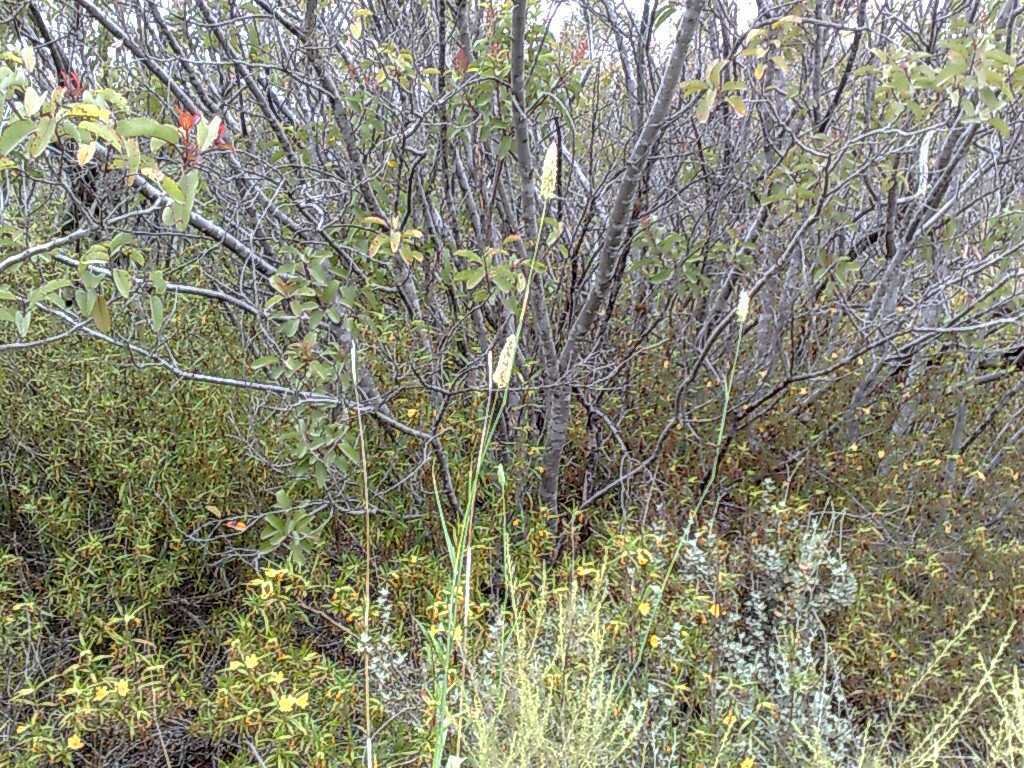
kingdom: Plantae
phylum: Tracheophyta
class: Magnoliopsida
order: Sapindales
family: Anacardiaceae
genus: Malosma
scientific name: Malosma laurina
